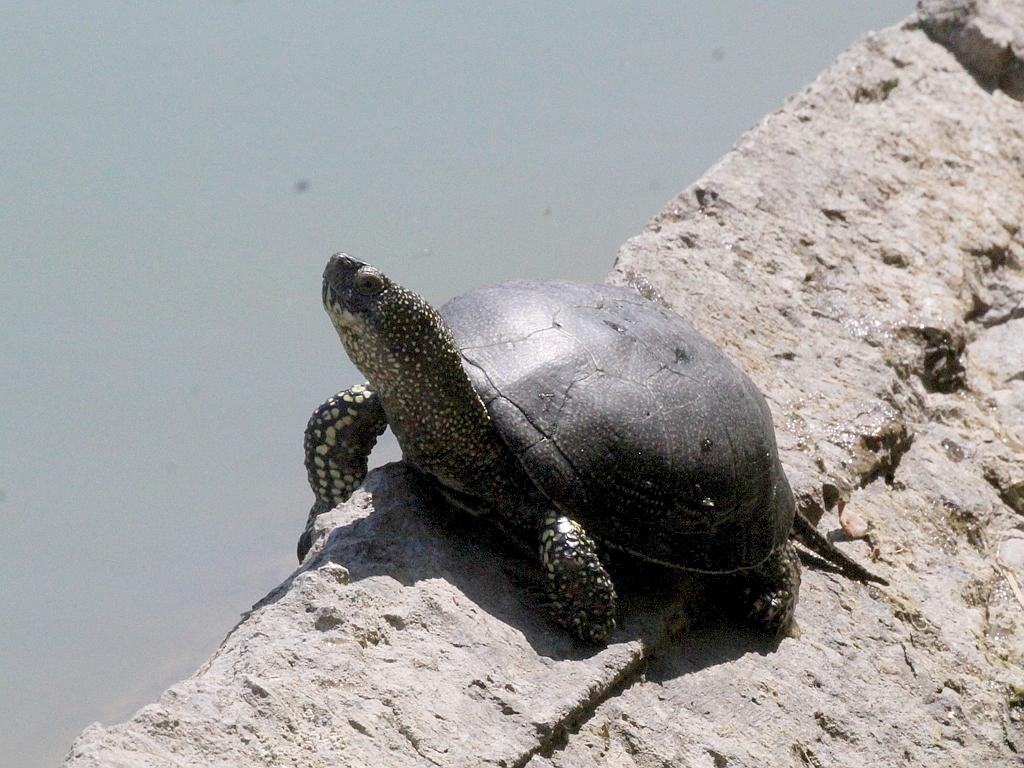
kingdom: Animalia
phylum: Chordata
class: Testudines
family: Emydidae
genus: Emys
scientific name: Emys orbicularis
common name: European pond turtle
